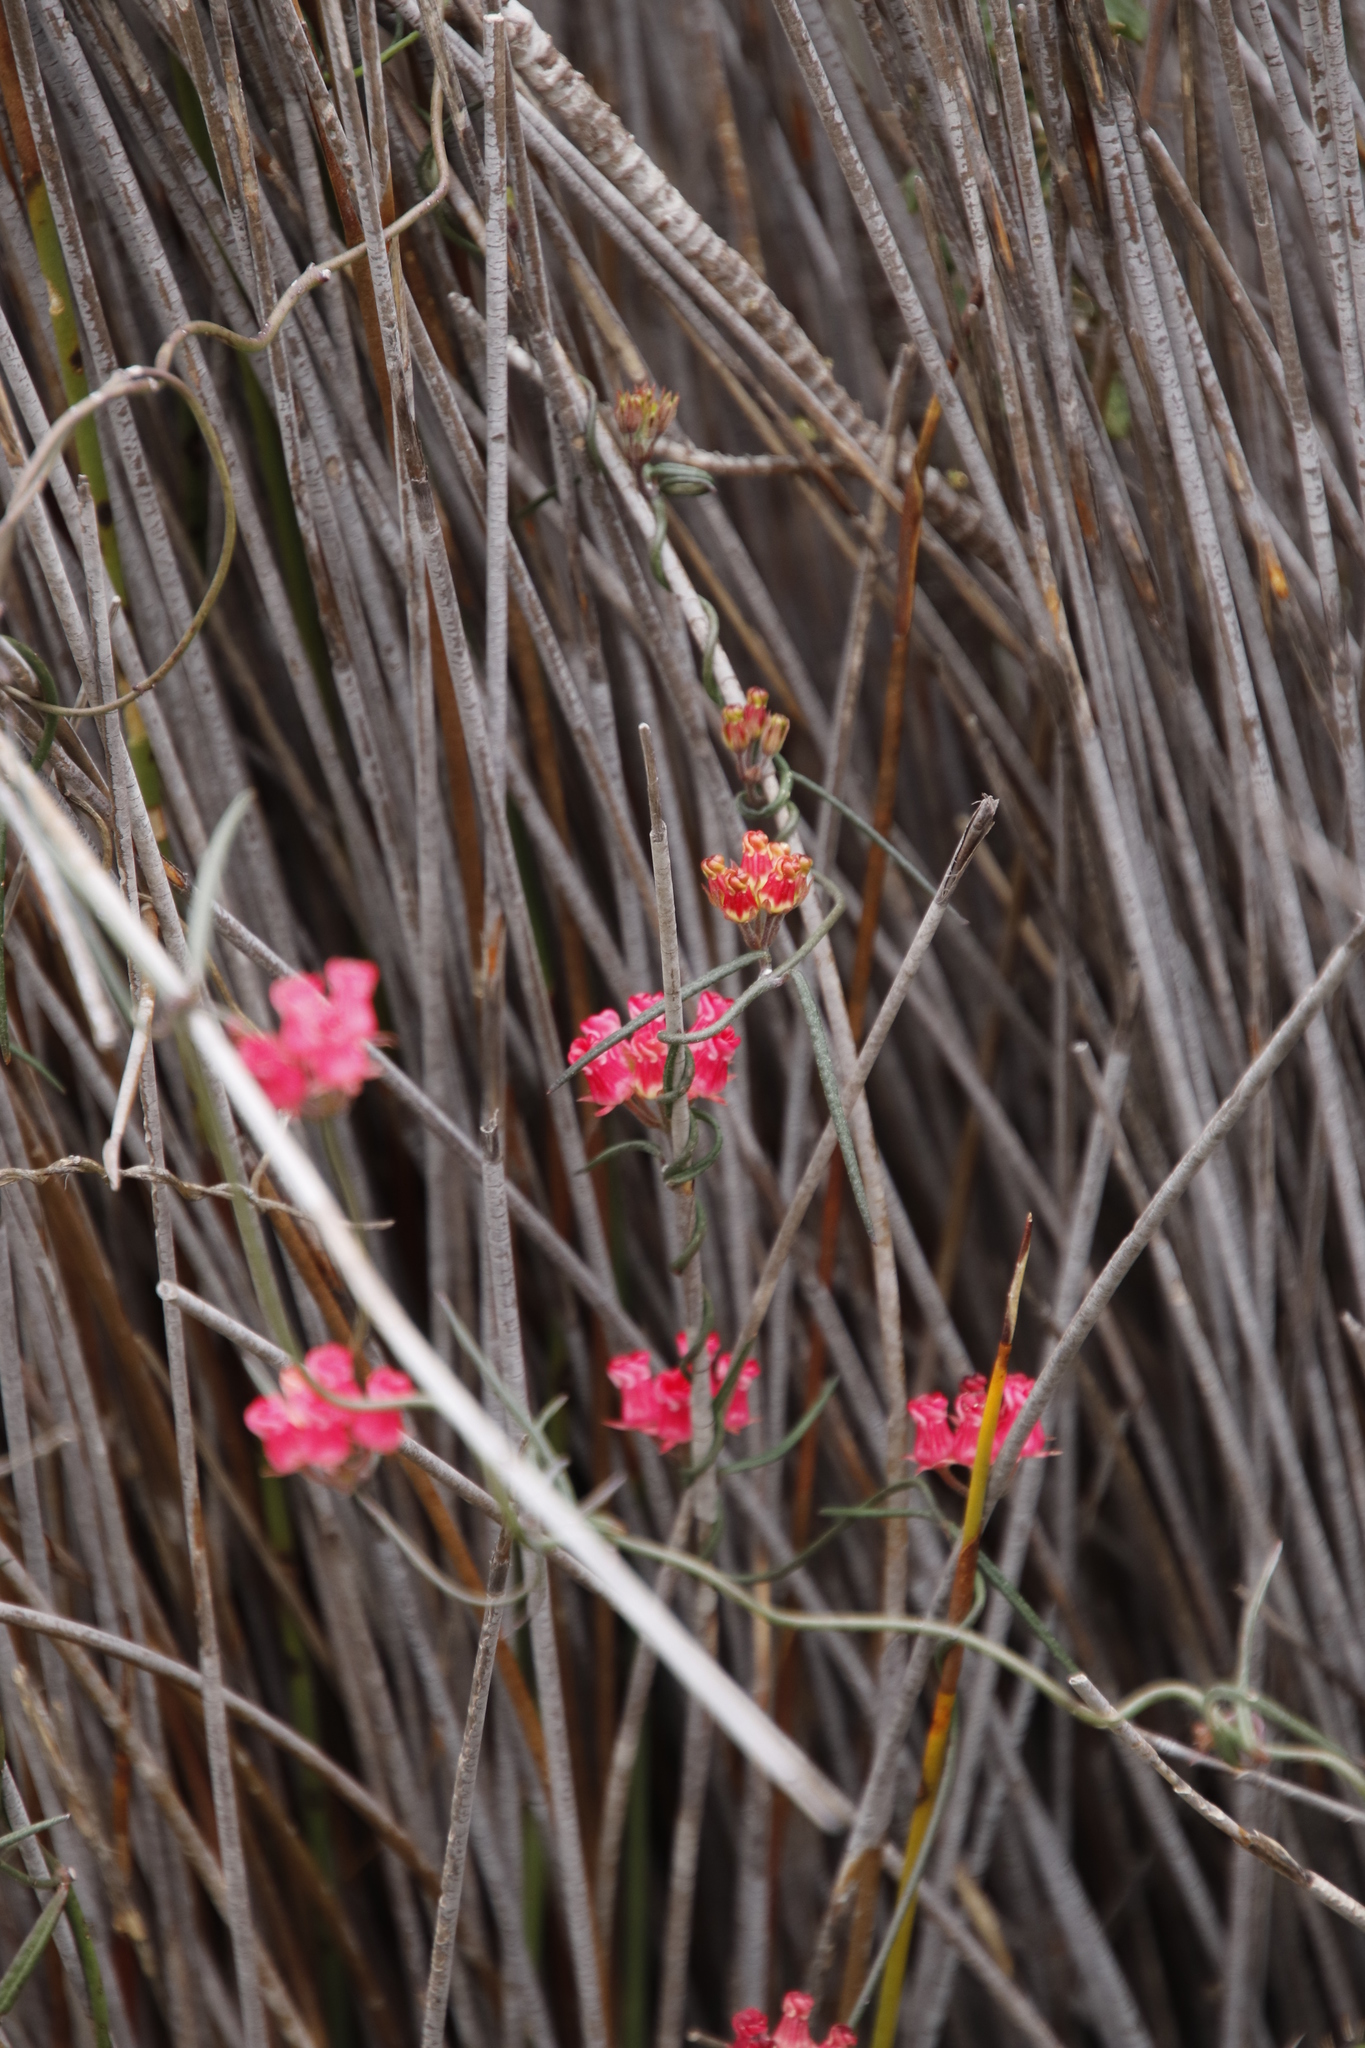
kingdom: Plantae
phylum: Tracheophyta
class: Magnoliopsida
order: Gentianales
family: Apocynaceae
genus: Microloma
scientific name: Microloma tenuifolium
